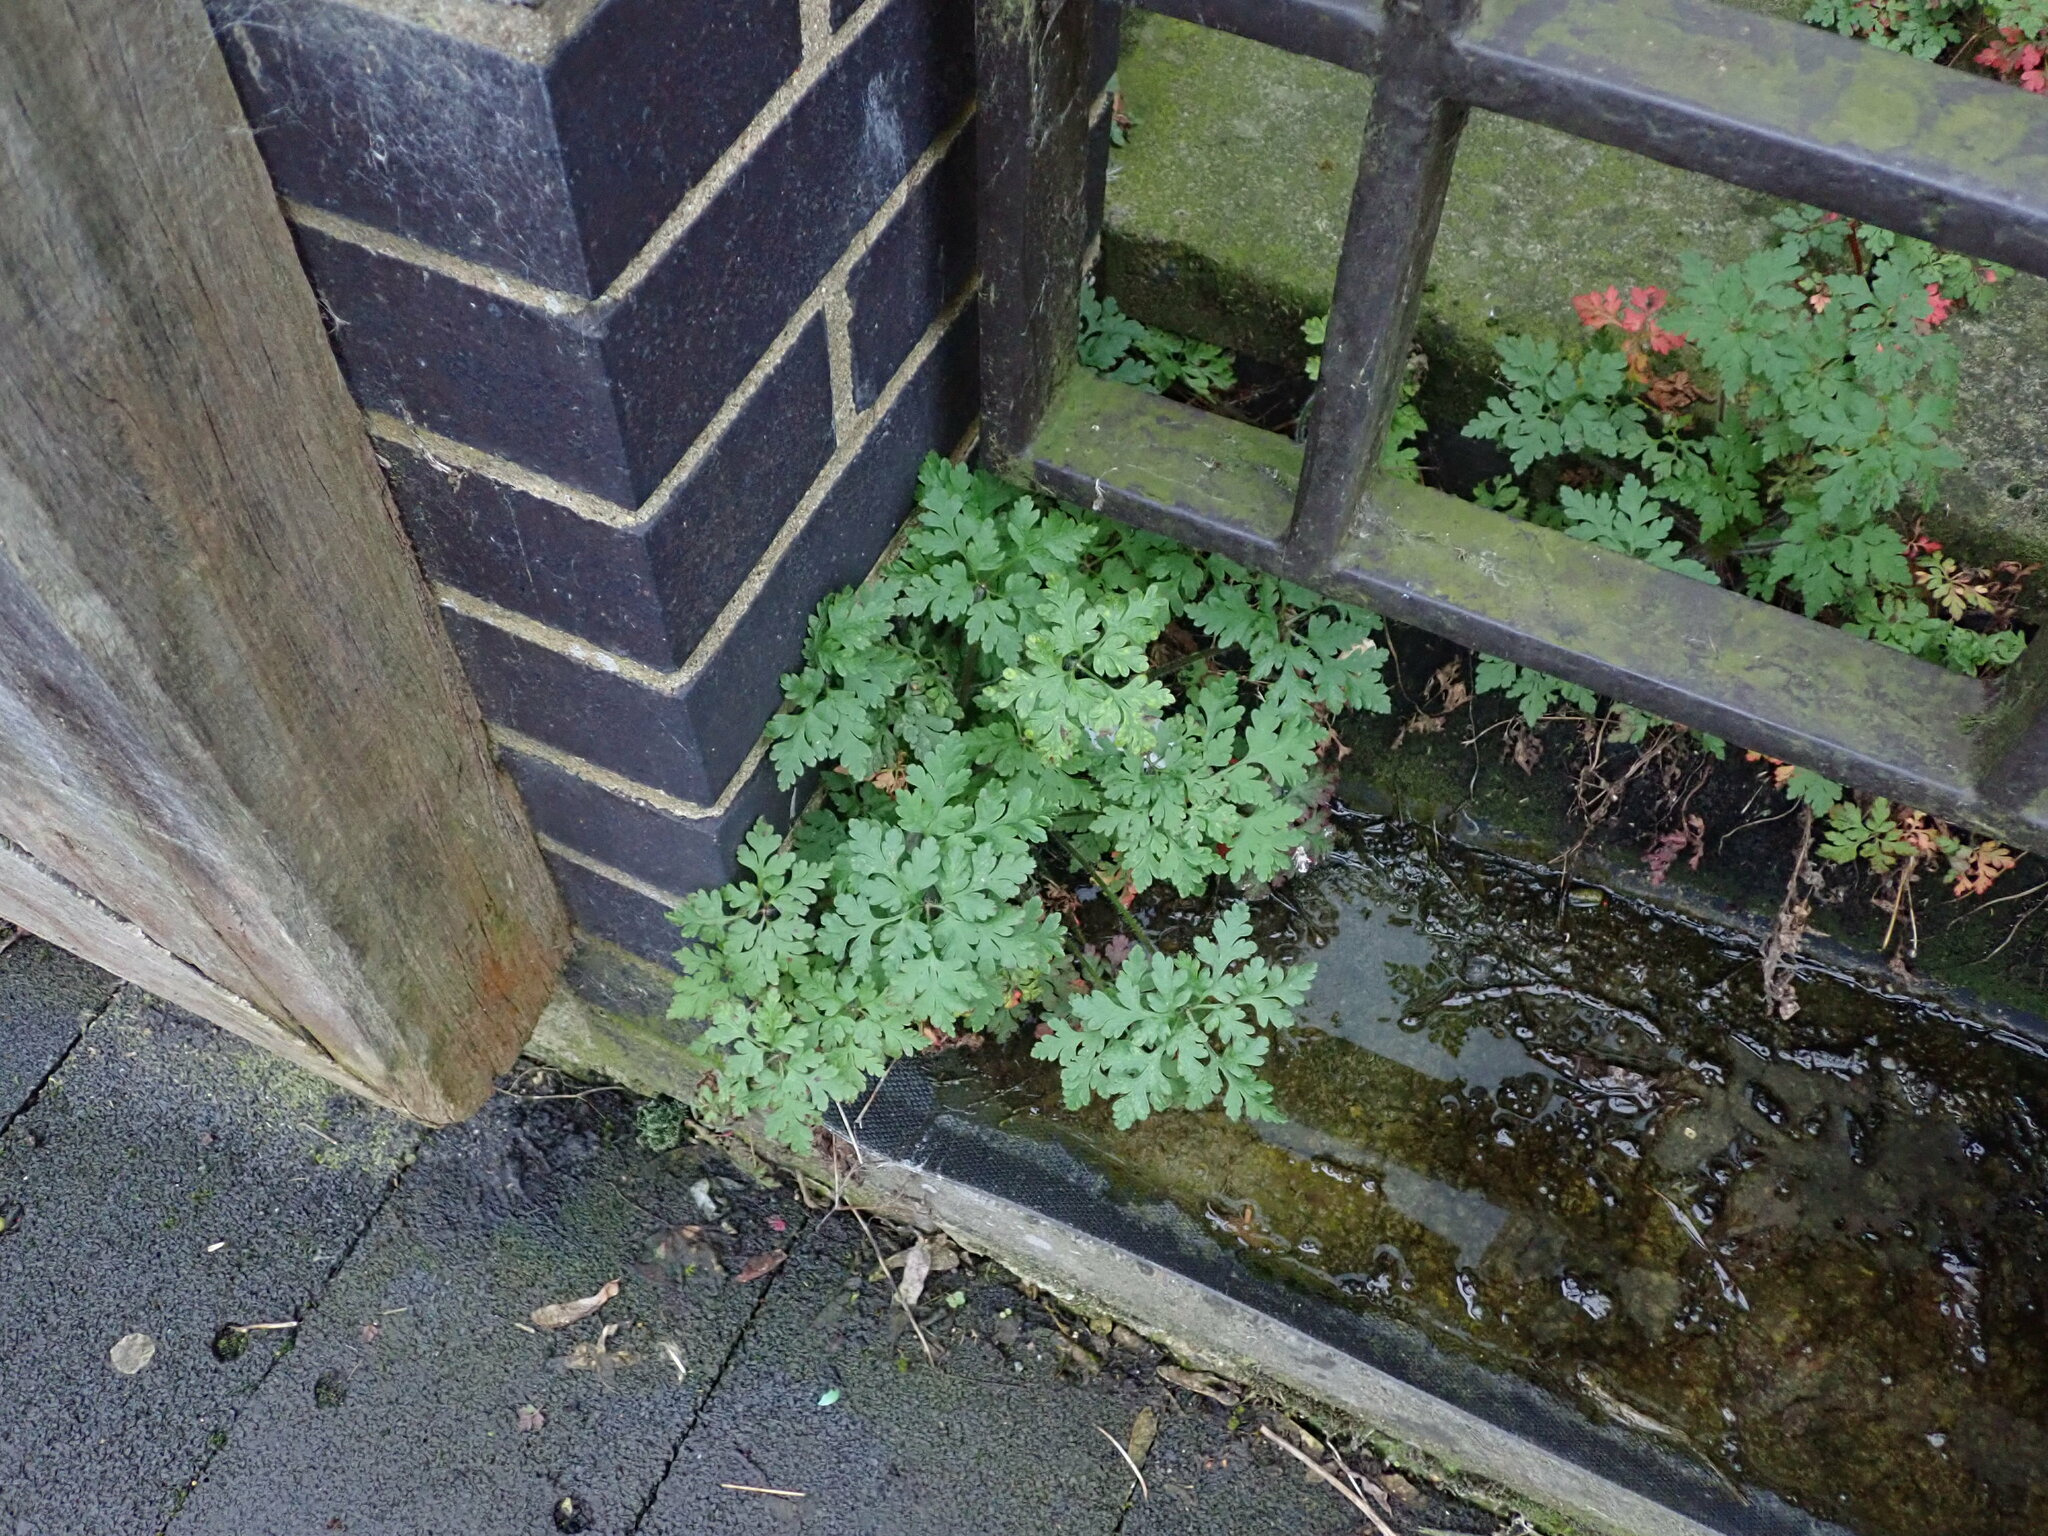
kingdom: Plantae
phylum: Tracheophyta
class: Magnoliopsida
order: Geraniales
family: Geraniaceae
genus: Geranium
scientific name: Geranium robertianum
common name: Herb-robert
